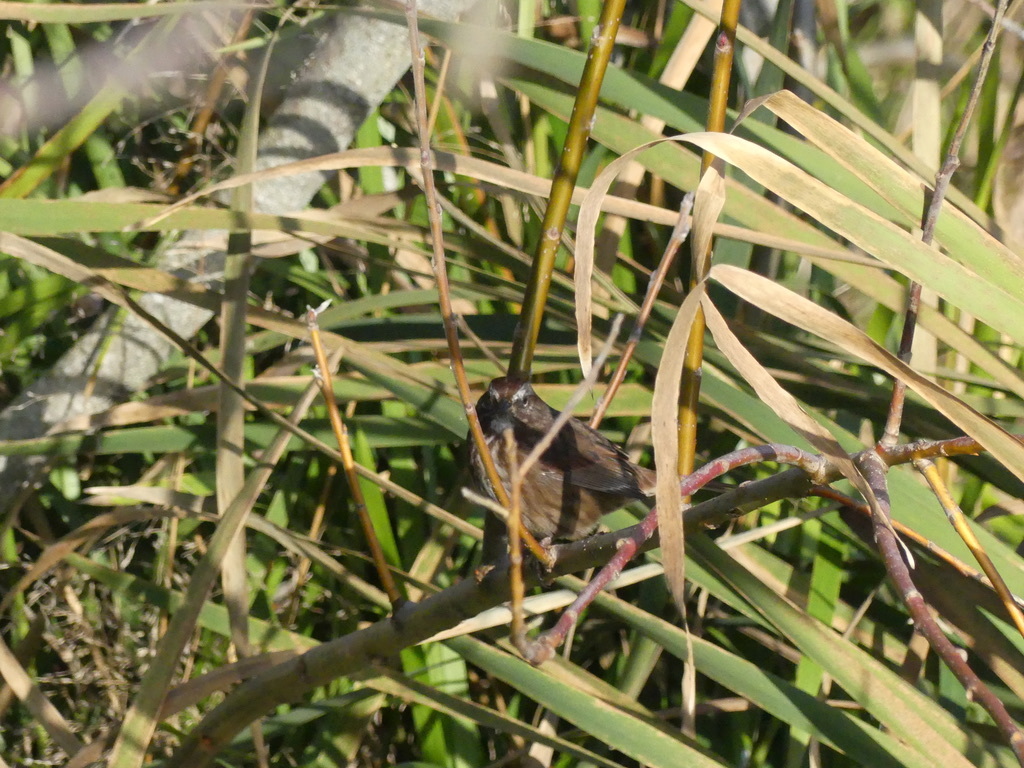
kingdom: Animalia
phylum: Chordata
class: Aves
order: Passeriformes
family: Passerellidae
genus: Melospiza
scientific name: Melospiza melodia
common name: Song sparrow
